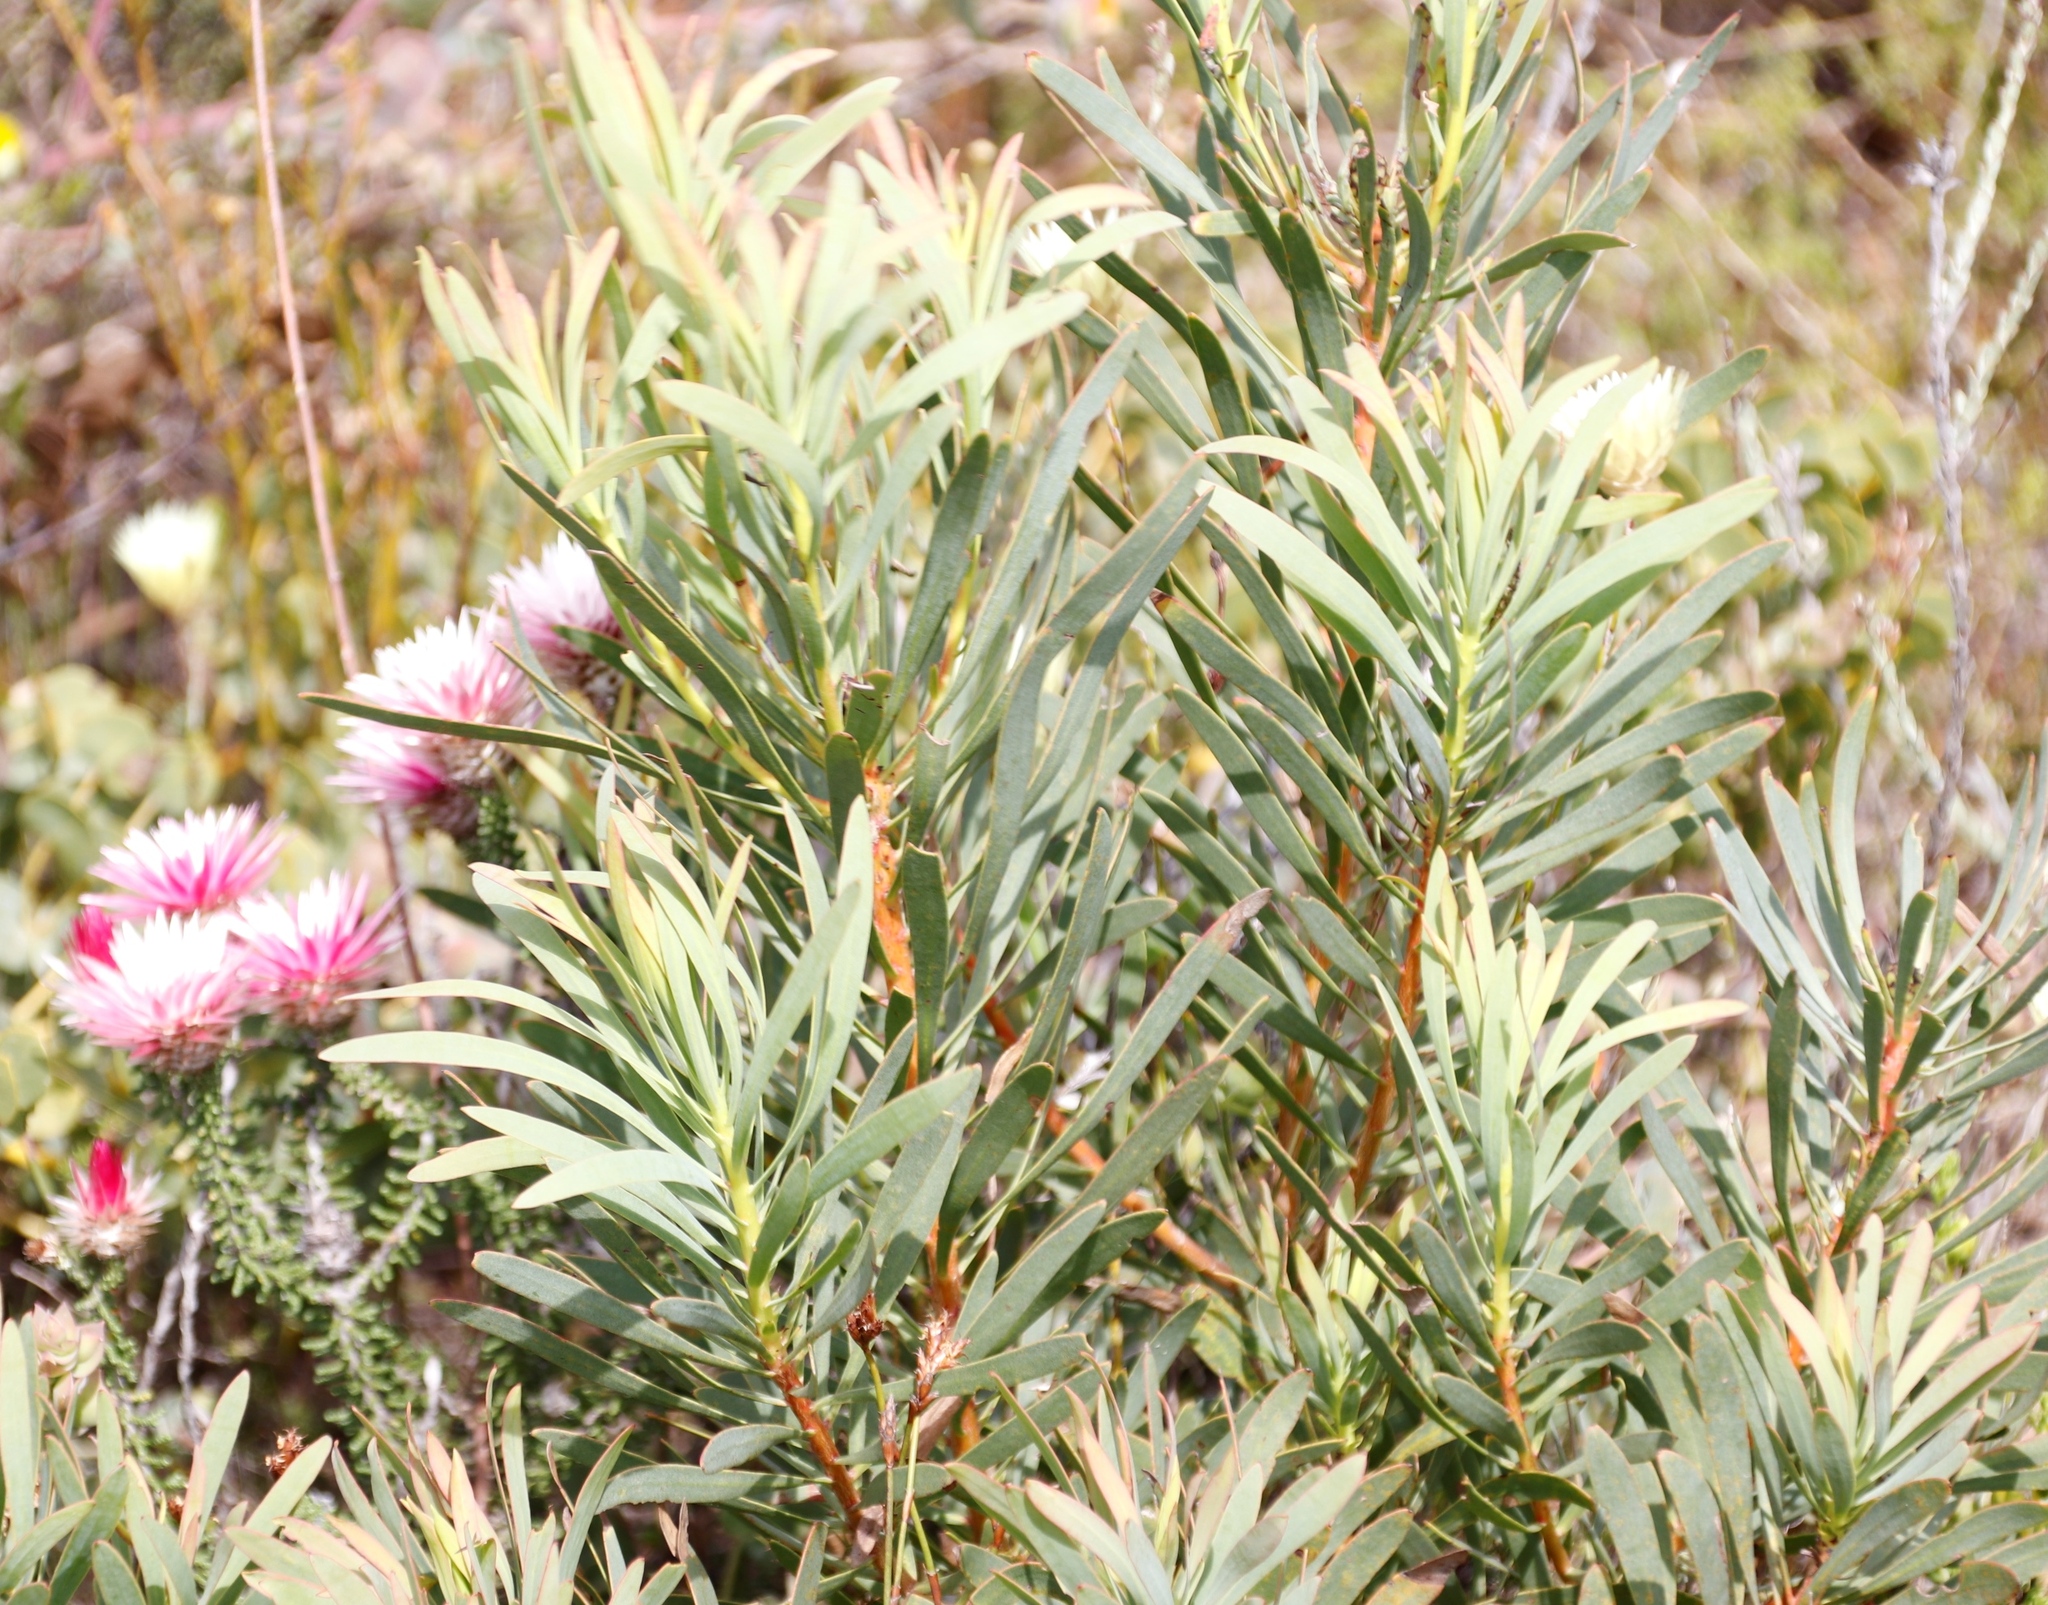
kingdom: Plantae
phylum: Tracheophyta
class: Magnoliopsida
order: Proteales
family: Proteaceae
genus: Protea
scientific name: Protea repens
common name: Sugarbush
